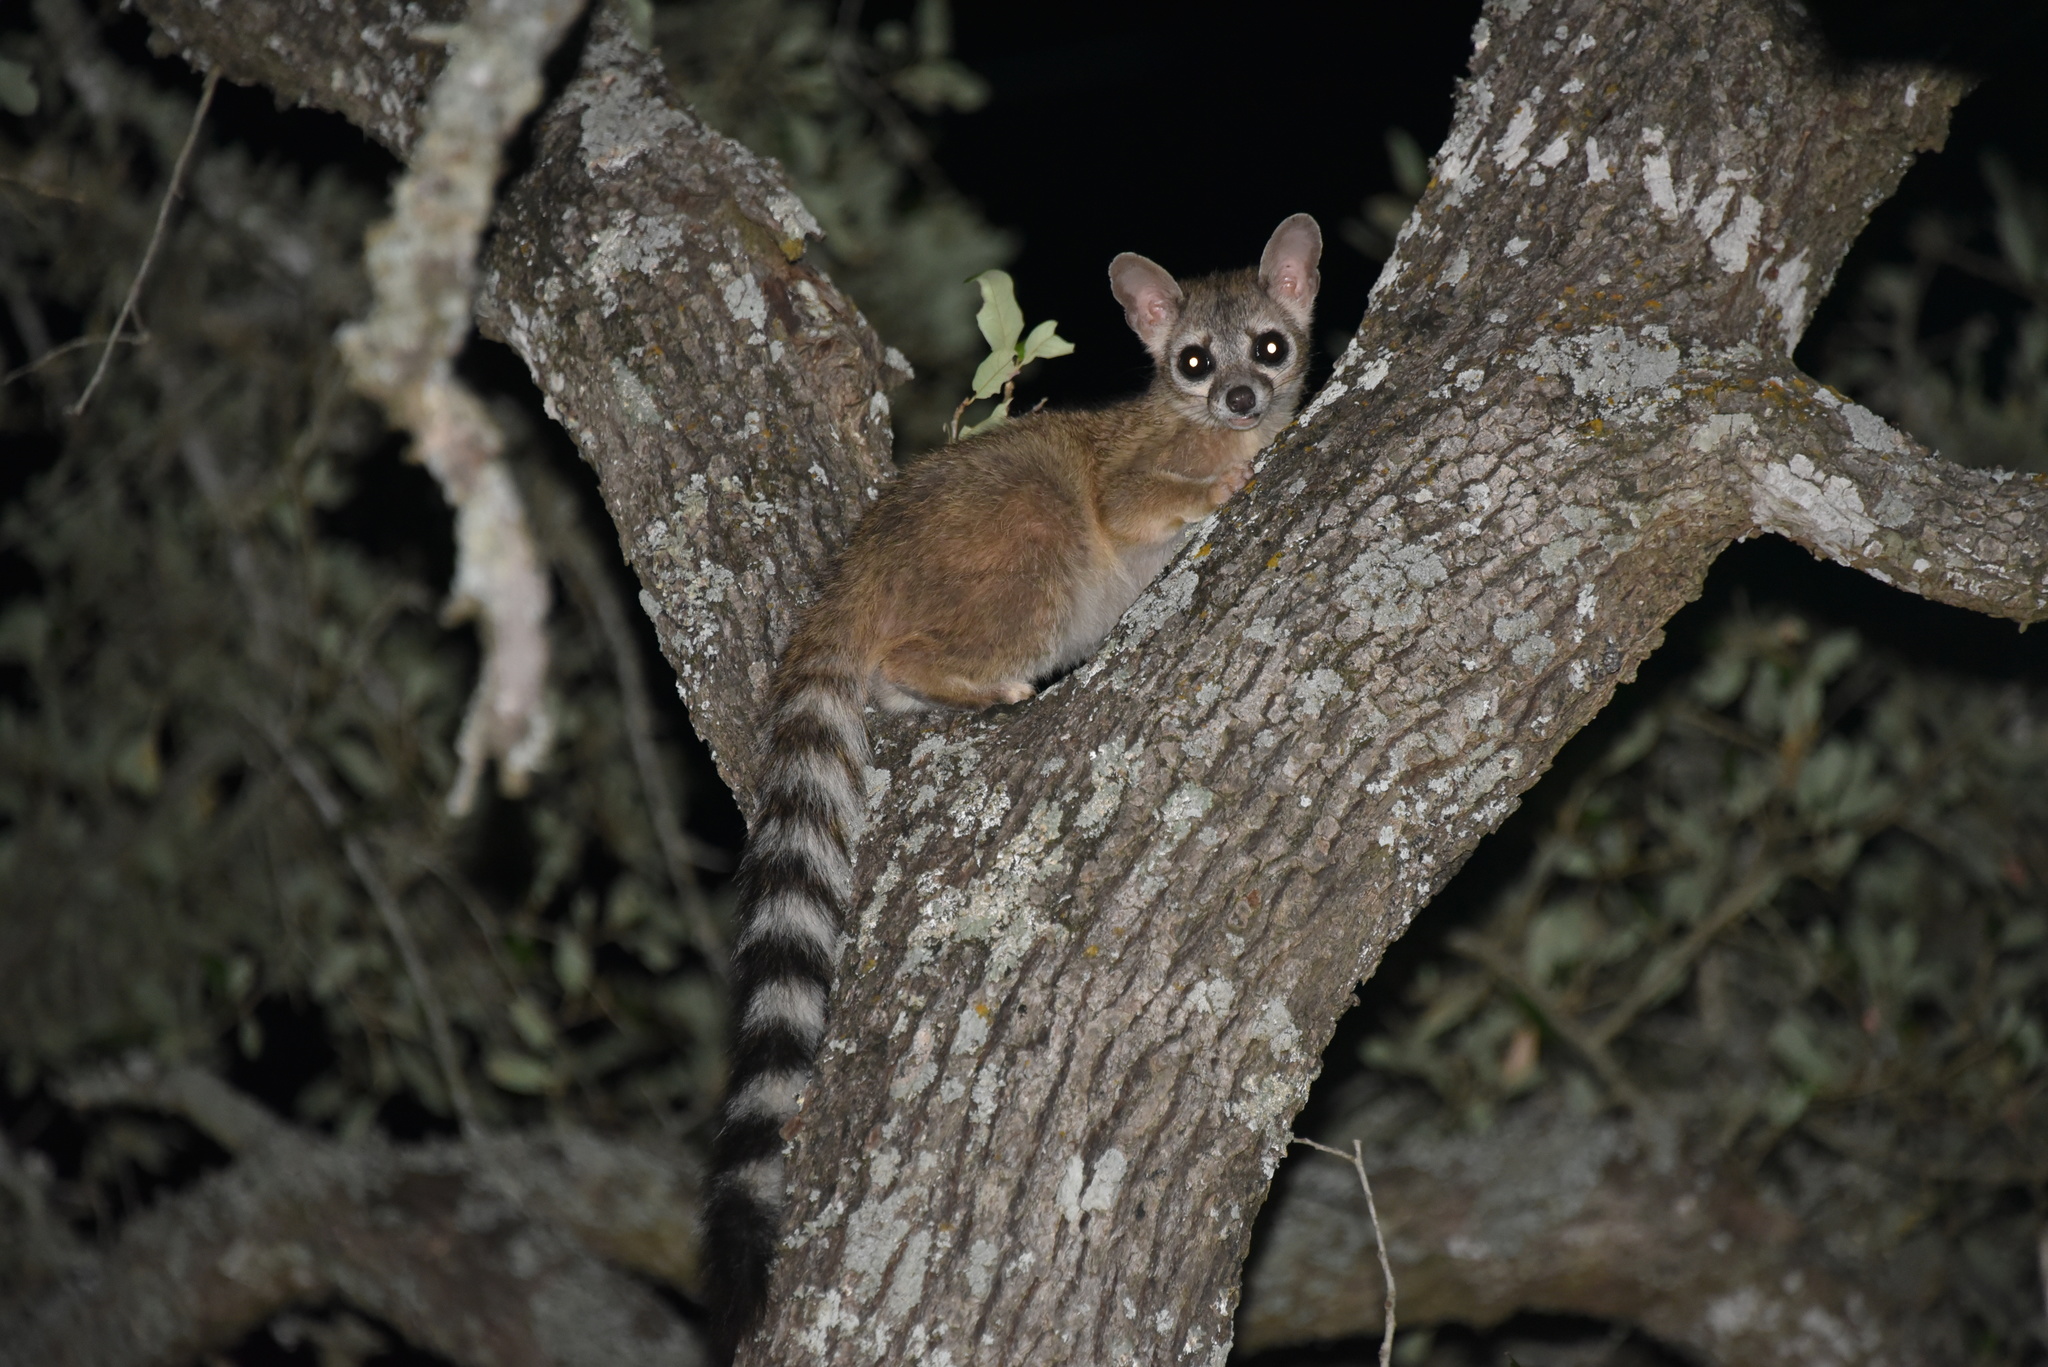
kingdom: Animalia
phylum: Chordata
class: Mammalia
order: Carnivora
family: Procyonidae
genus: Bassariscus
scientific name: Bassariscus astutus
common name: Ringtail
